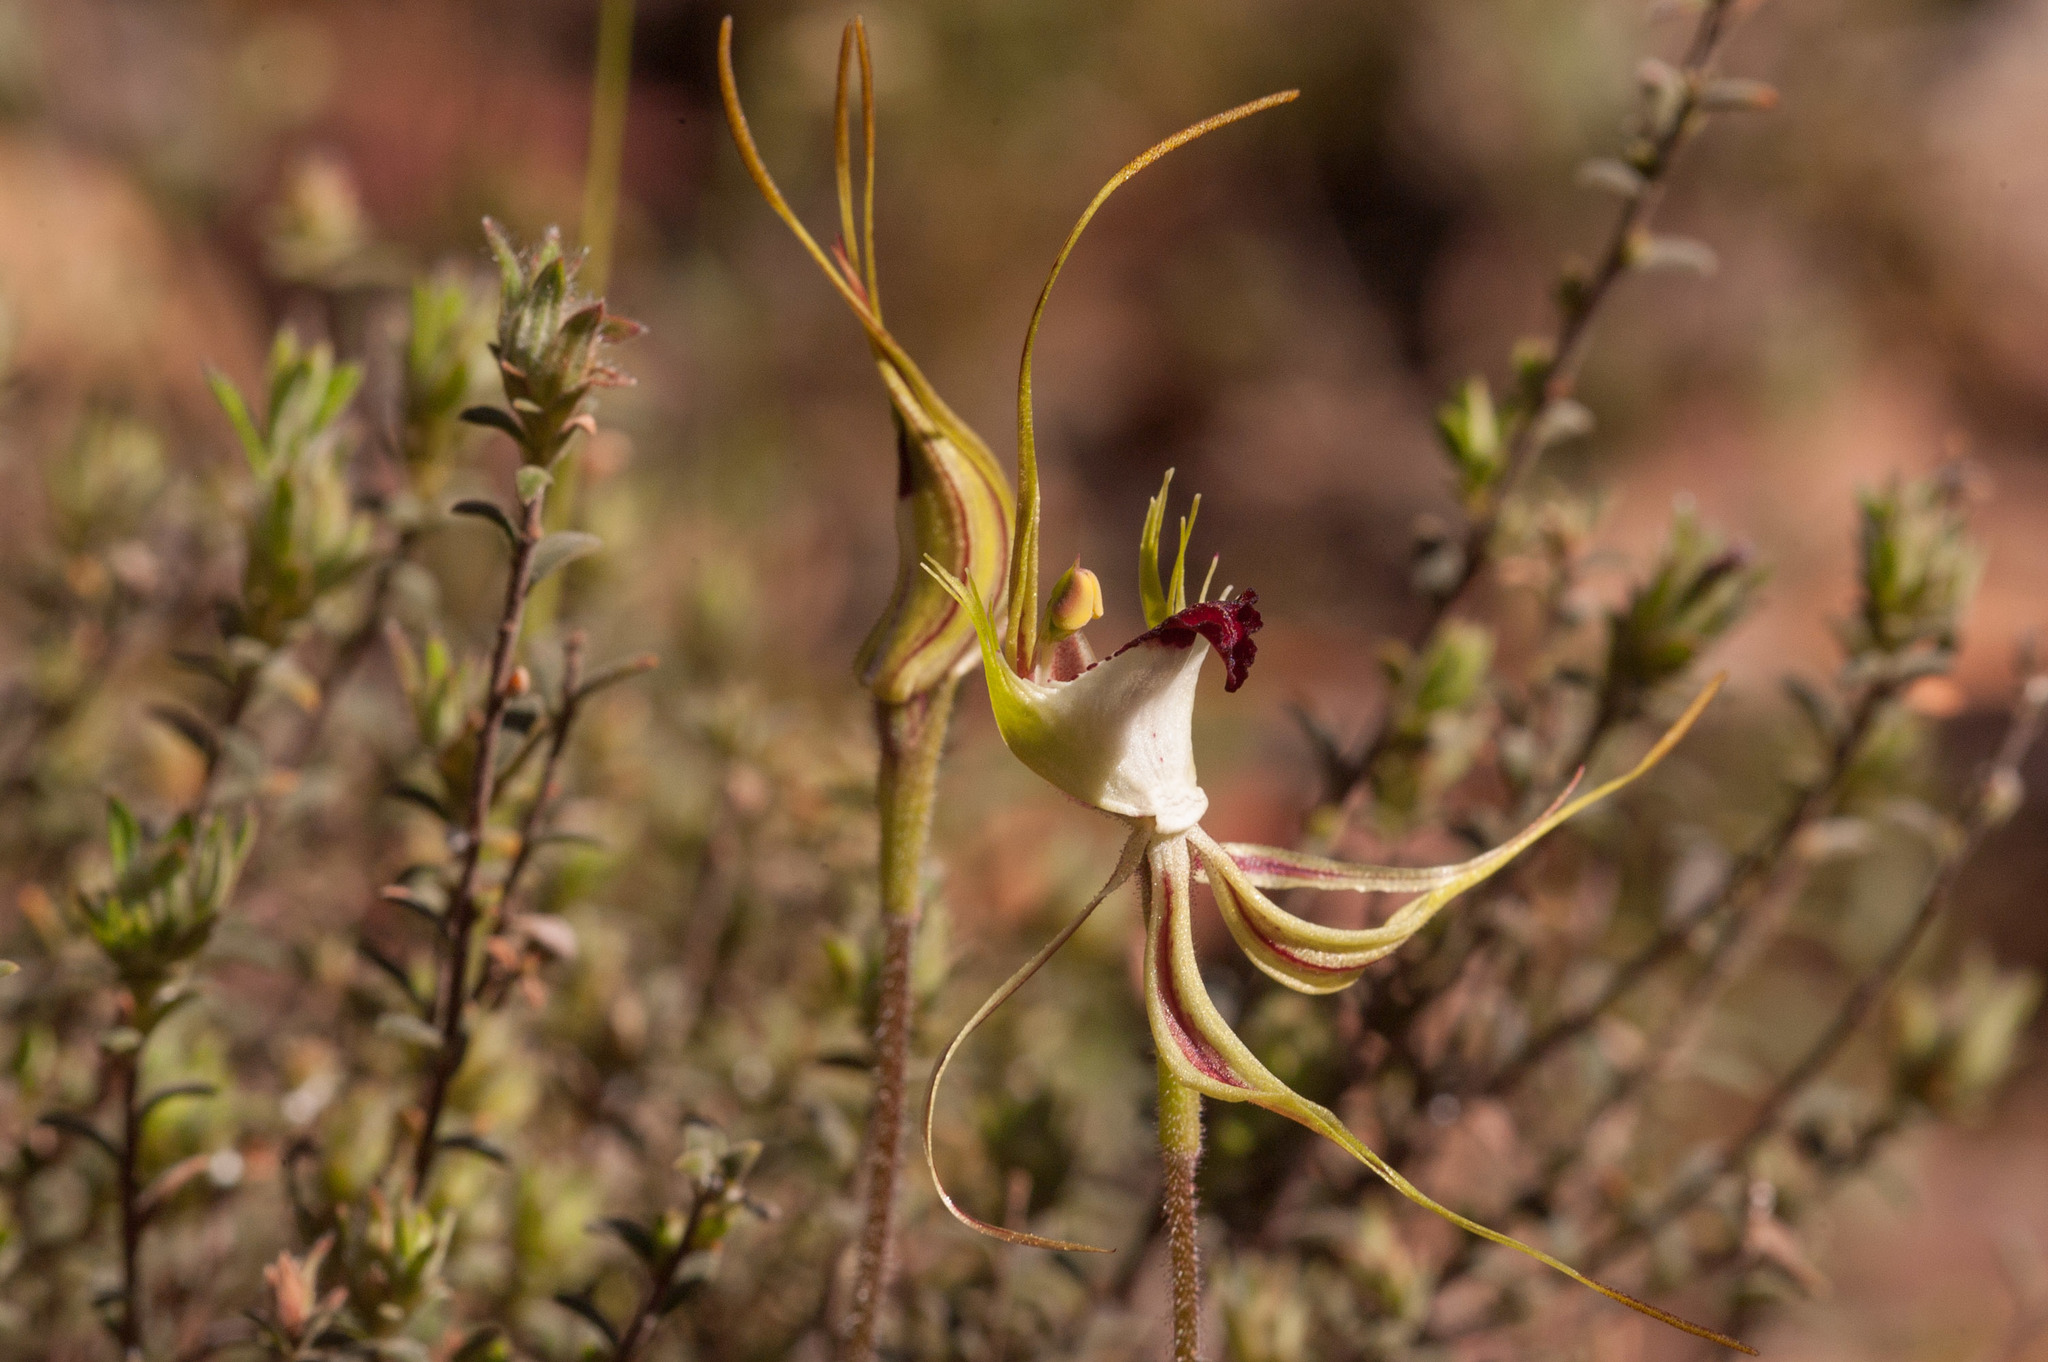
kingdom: Plantae
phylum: Tracheophyta
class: Liliopsida
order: Asparagales
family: Orchidaceae
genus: Caladenia
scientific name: Caladenia tentaculata
